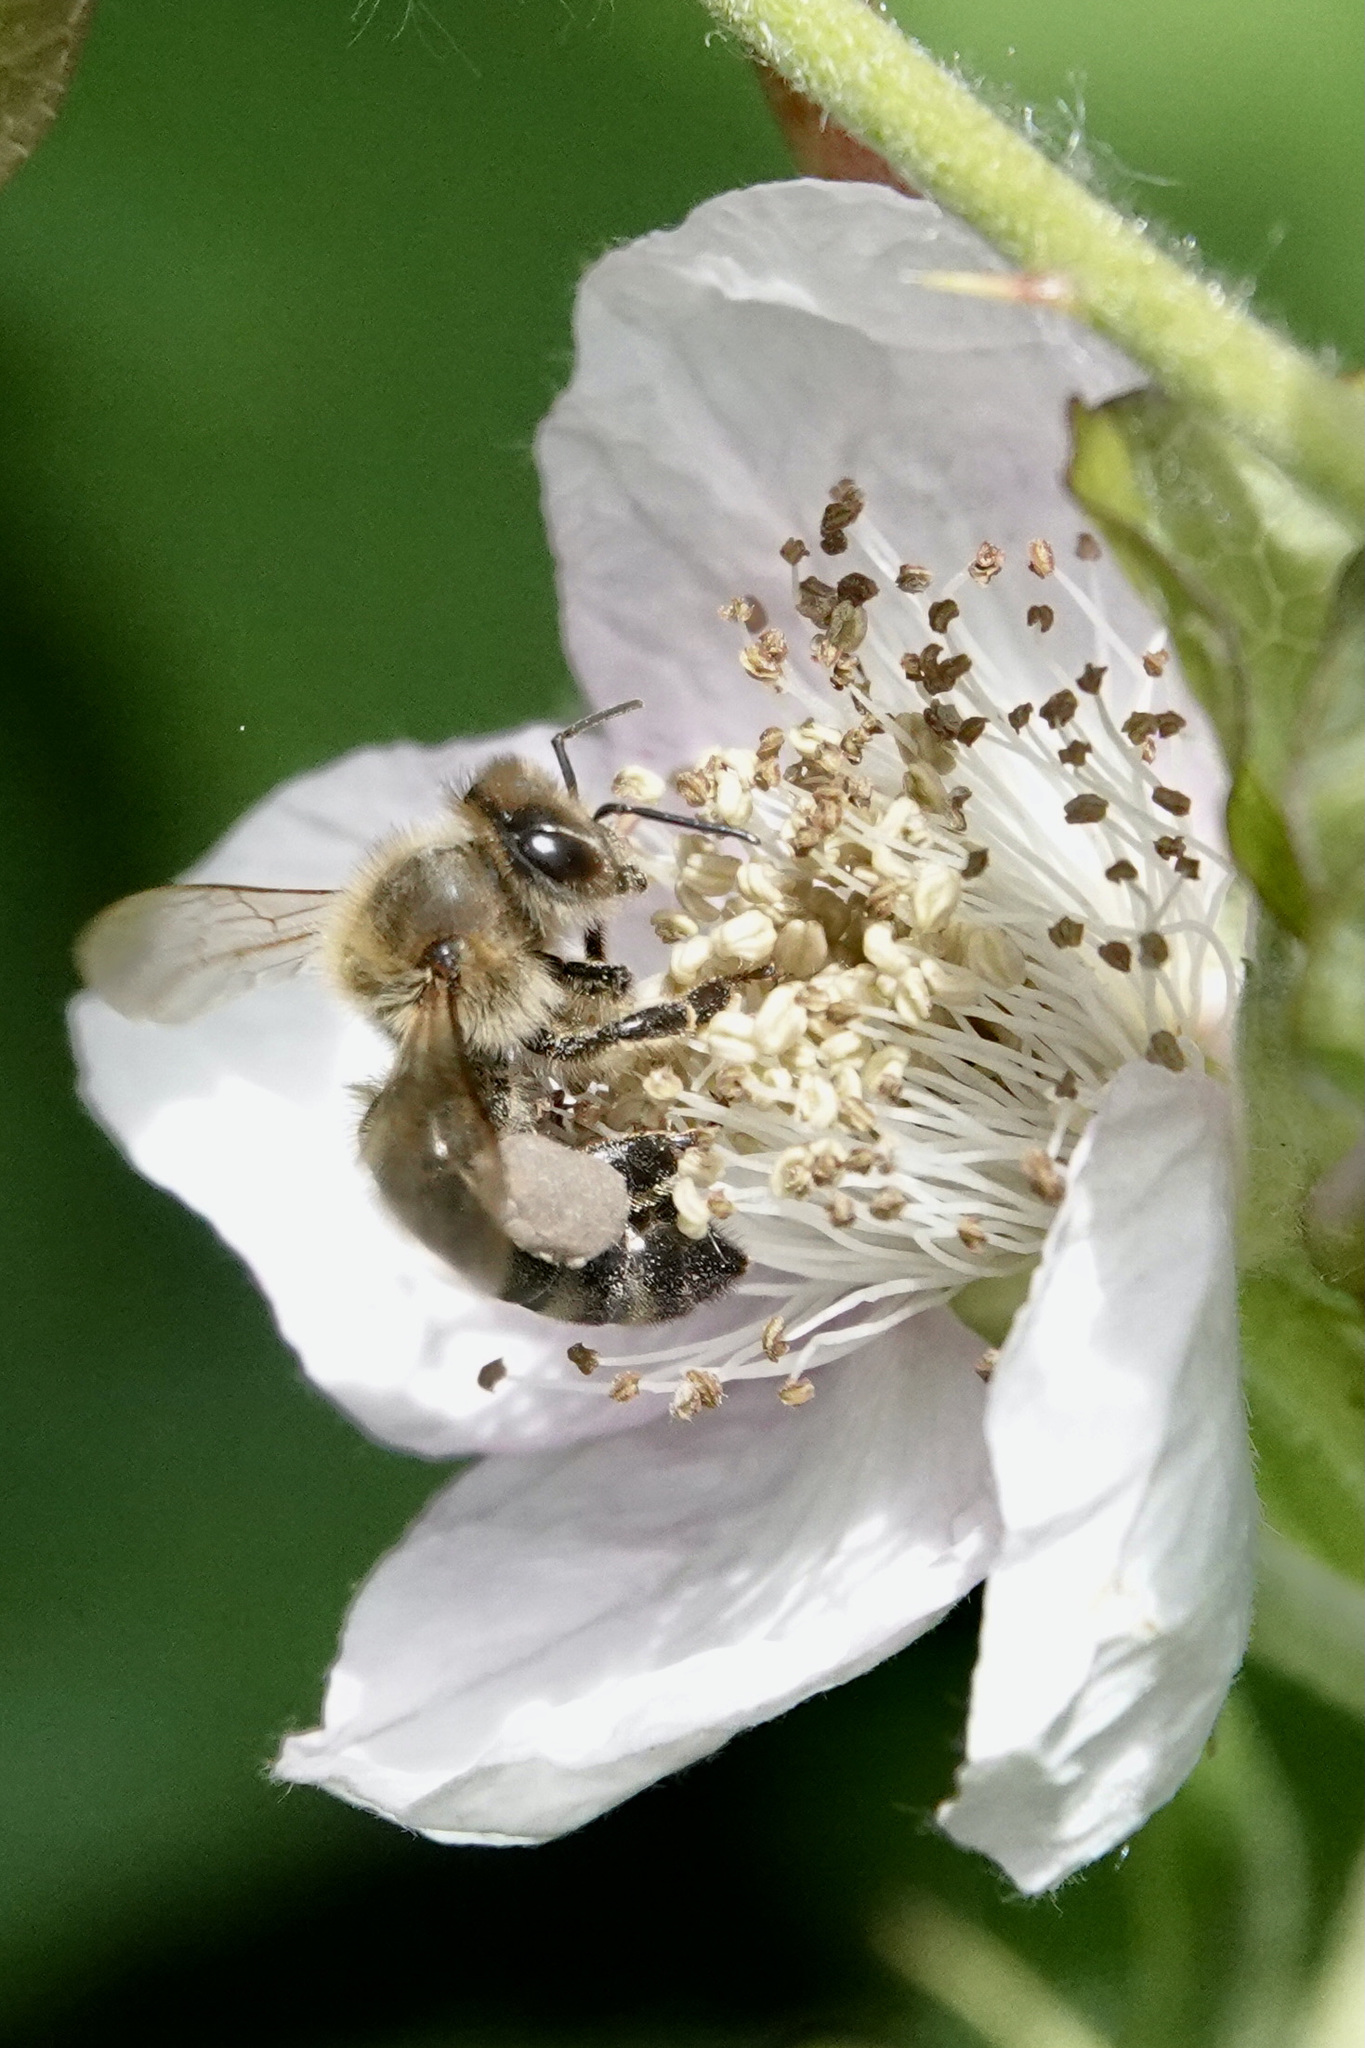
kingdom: Animalia
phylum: Arthropoda
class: Insecta
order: Hymenoptera
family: Apidae
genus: Apis
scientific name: Apis mellifera
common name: Honey bee
